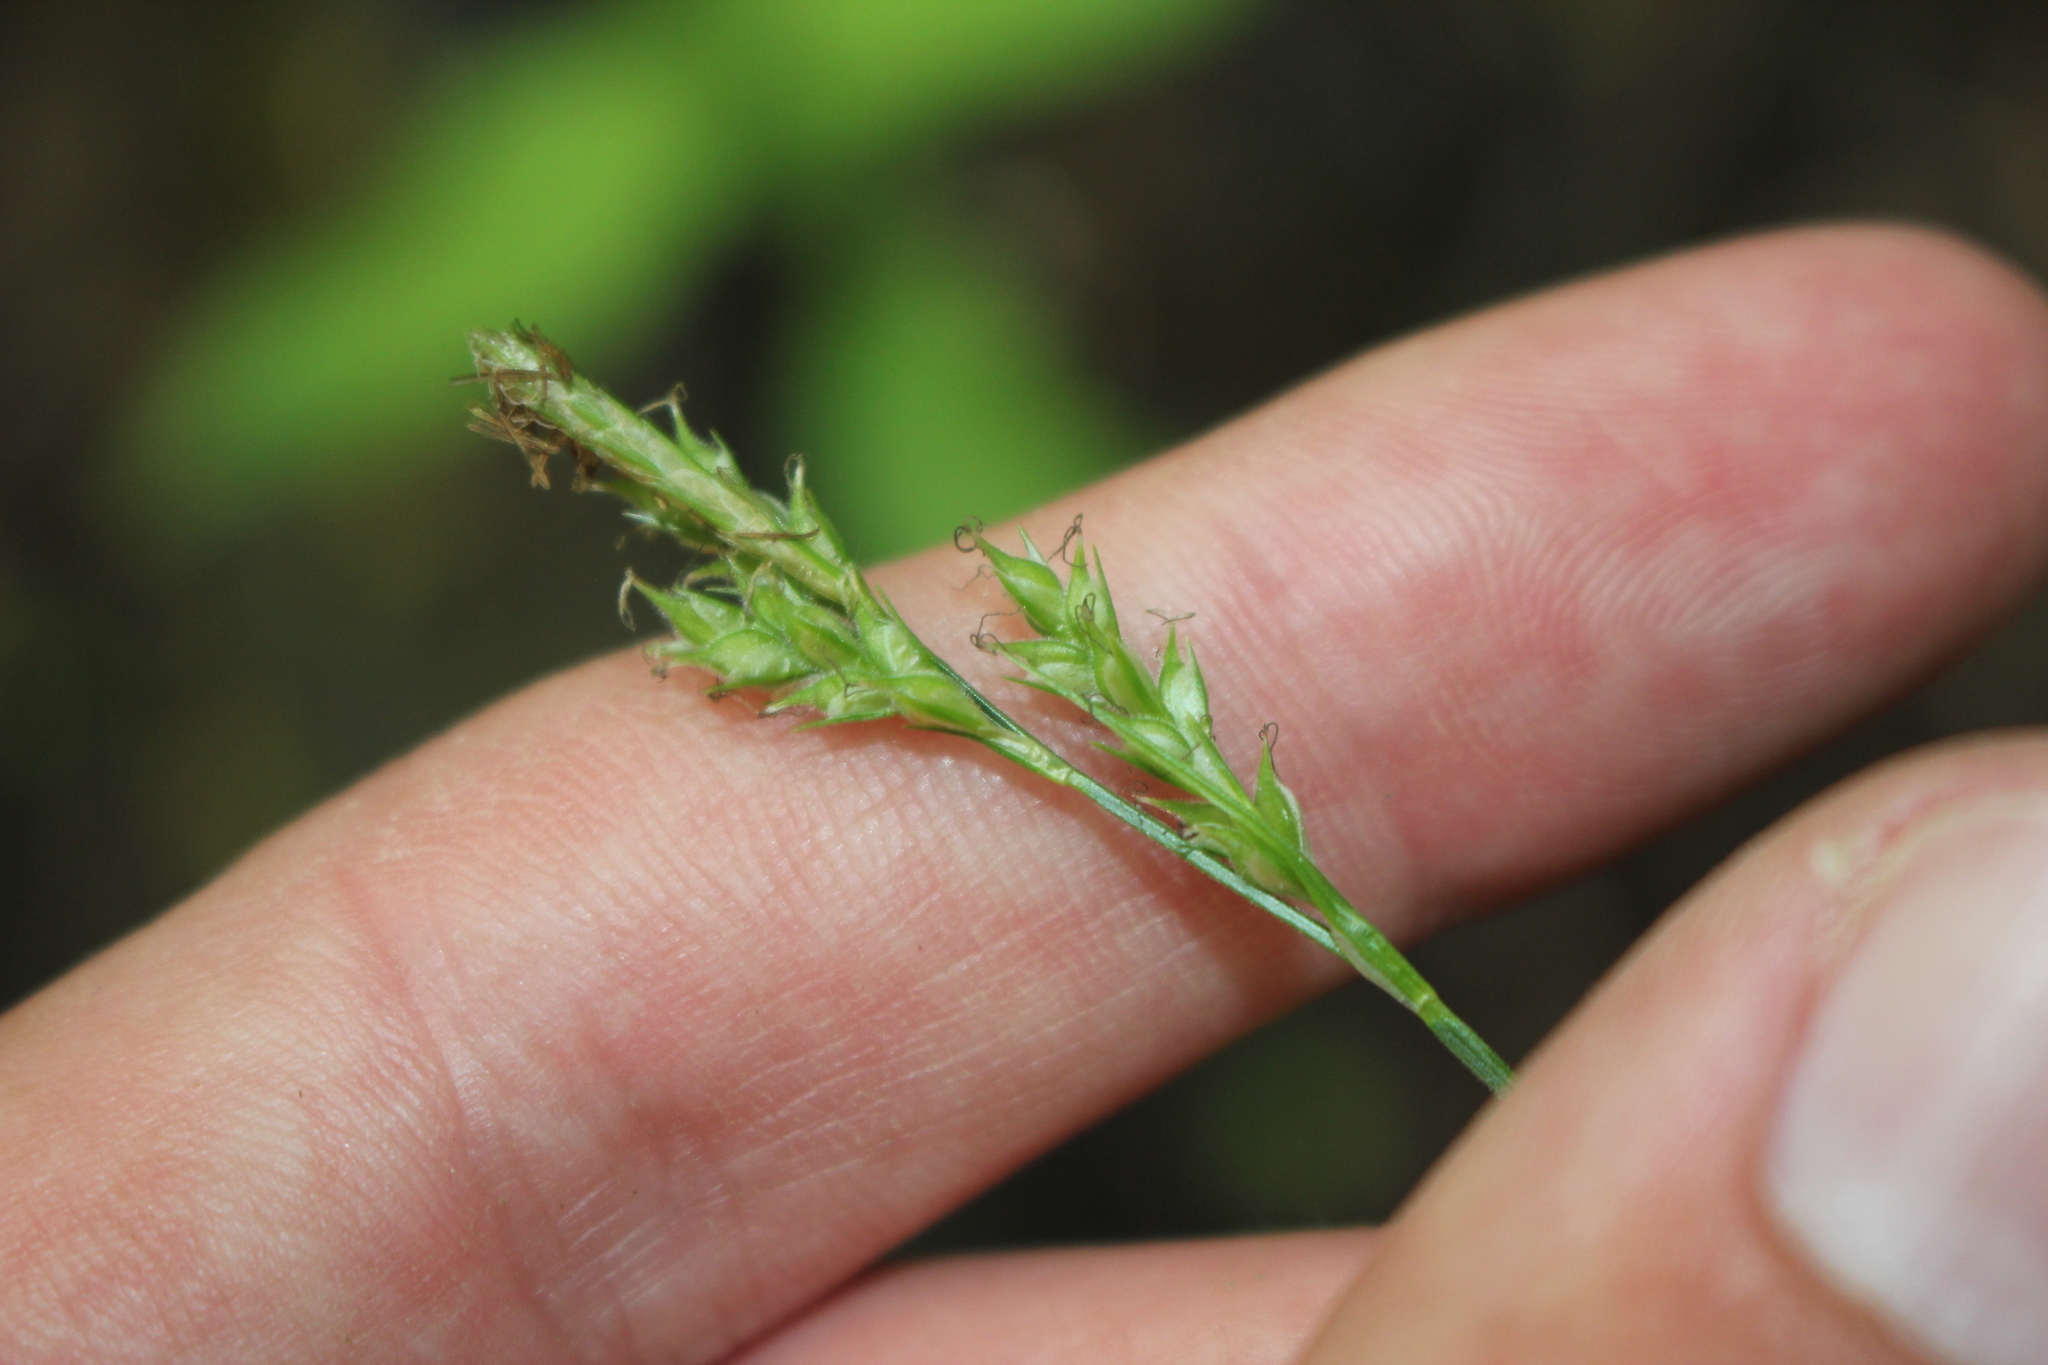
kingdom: Plantae
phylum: Tracheophyta
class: Liliopsida
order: Poales
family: Cyperaceae
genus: Carex
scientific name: Carex hirtifolia
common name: Hairy sedge
